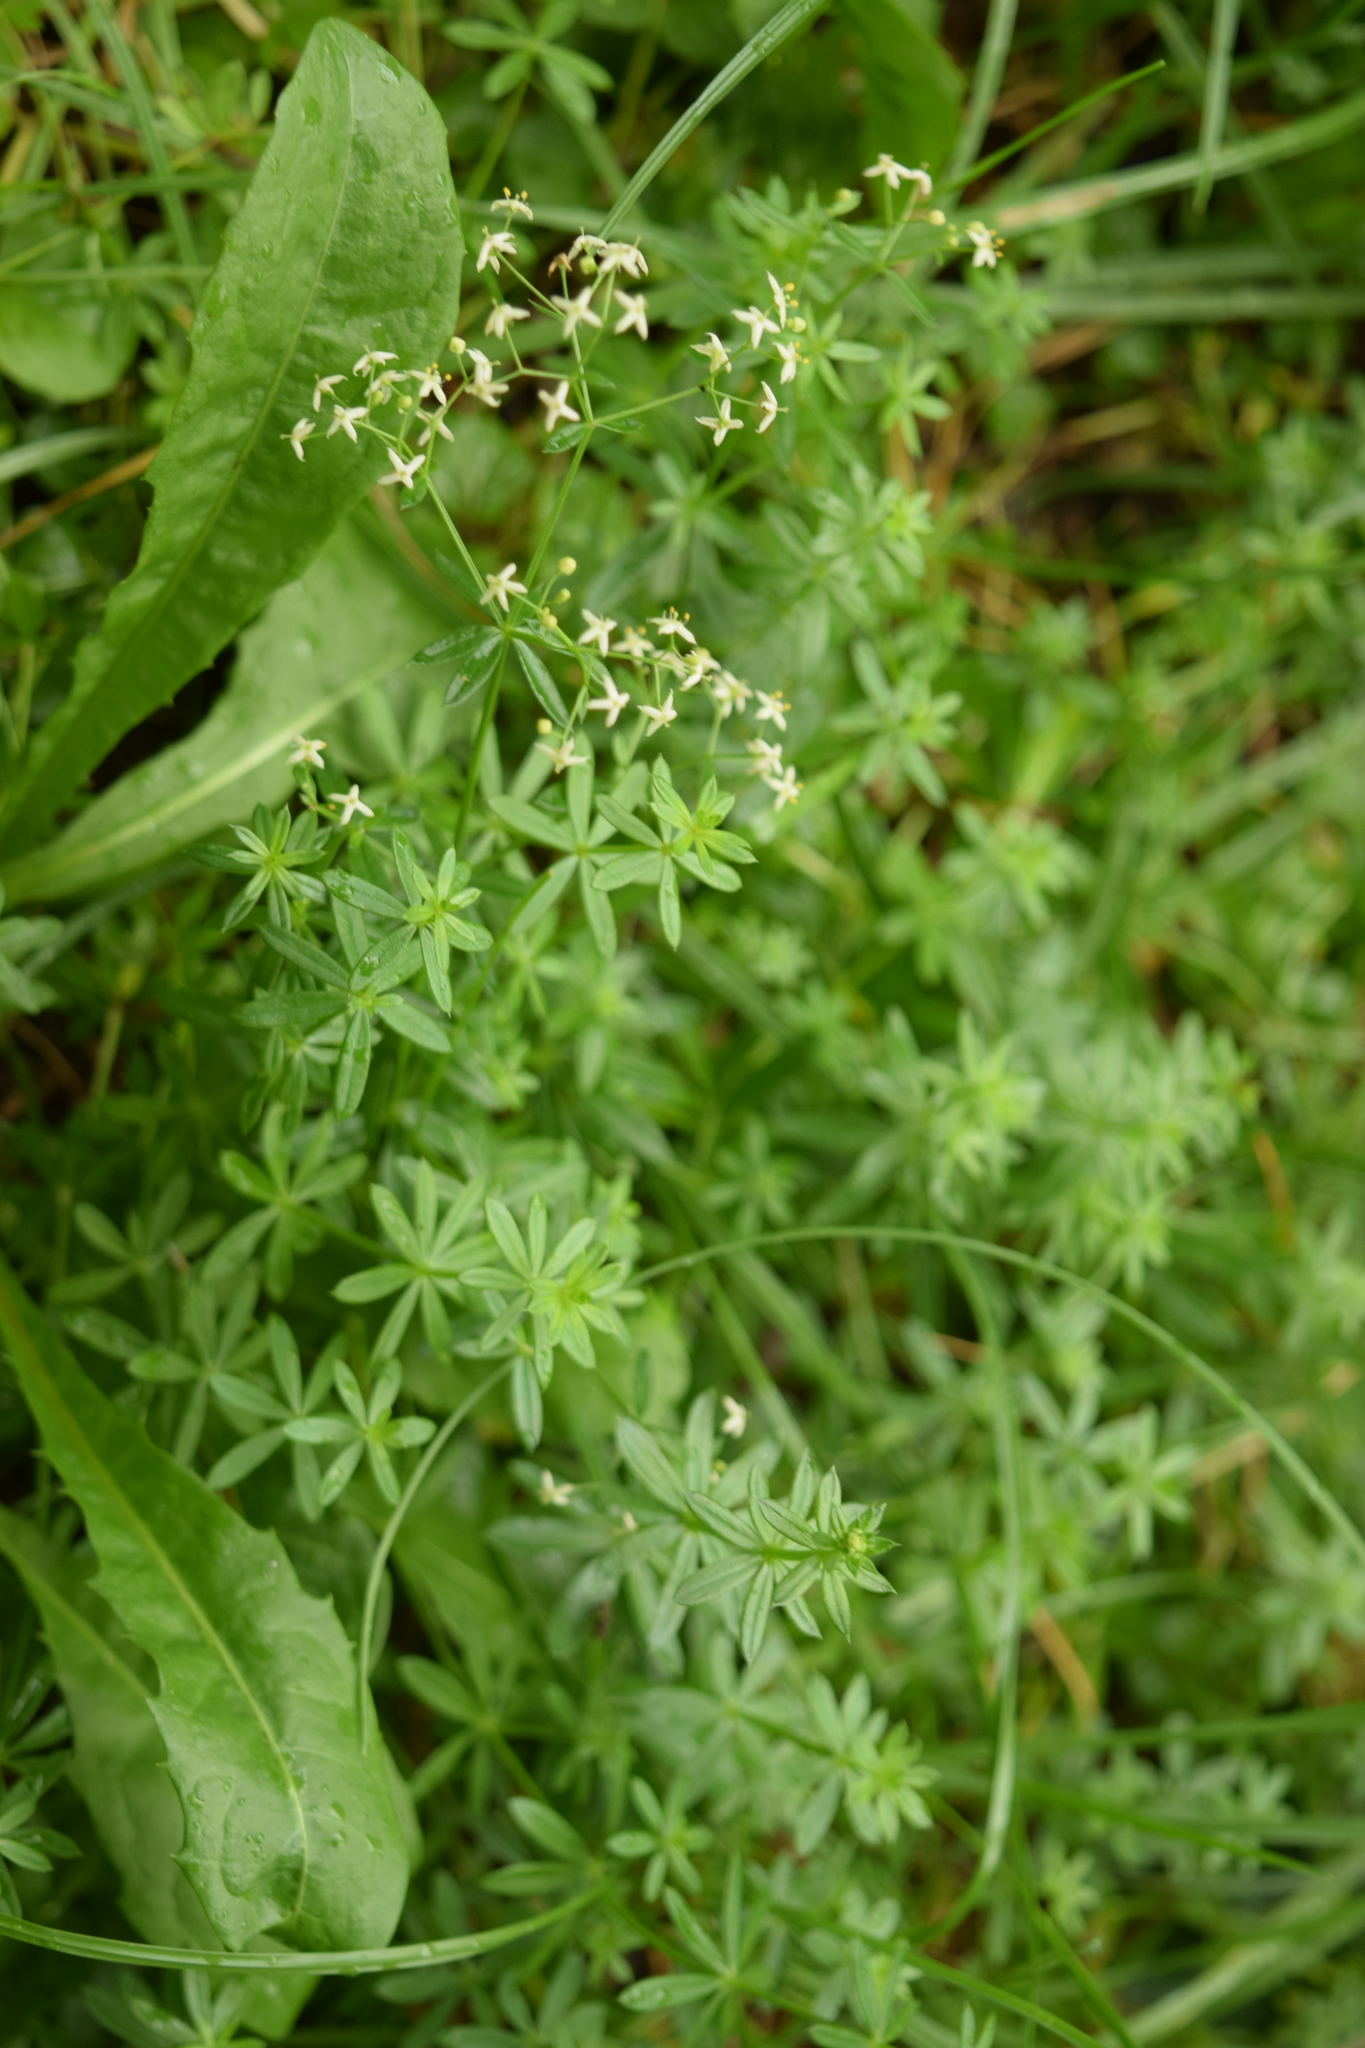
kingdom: Plantae
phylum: Tracheophyta
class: Magnoliopsida
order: Gentianales
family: Rubiaceae
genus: Galium
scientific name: Galium mollugo
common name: Hedge bedstraw
